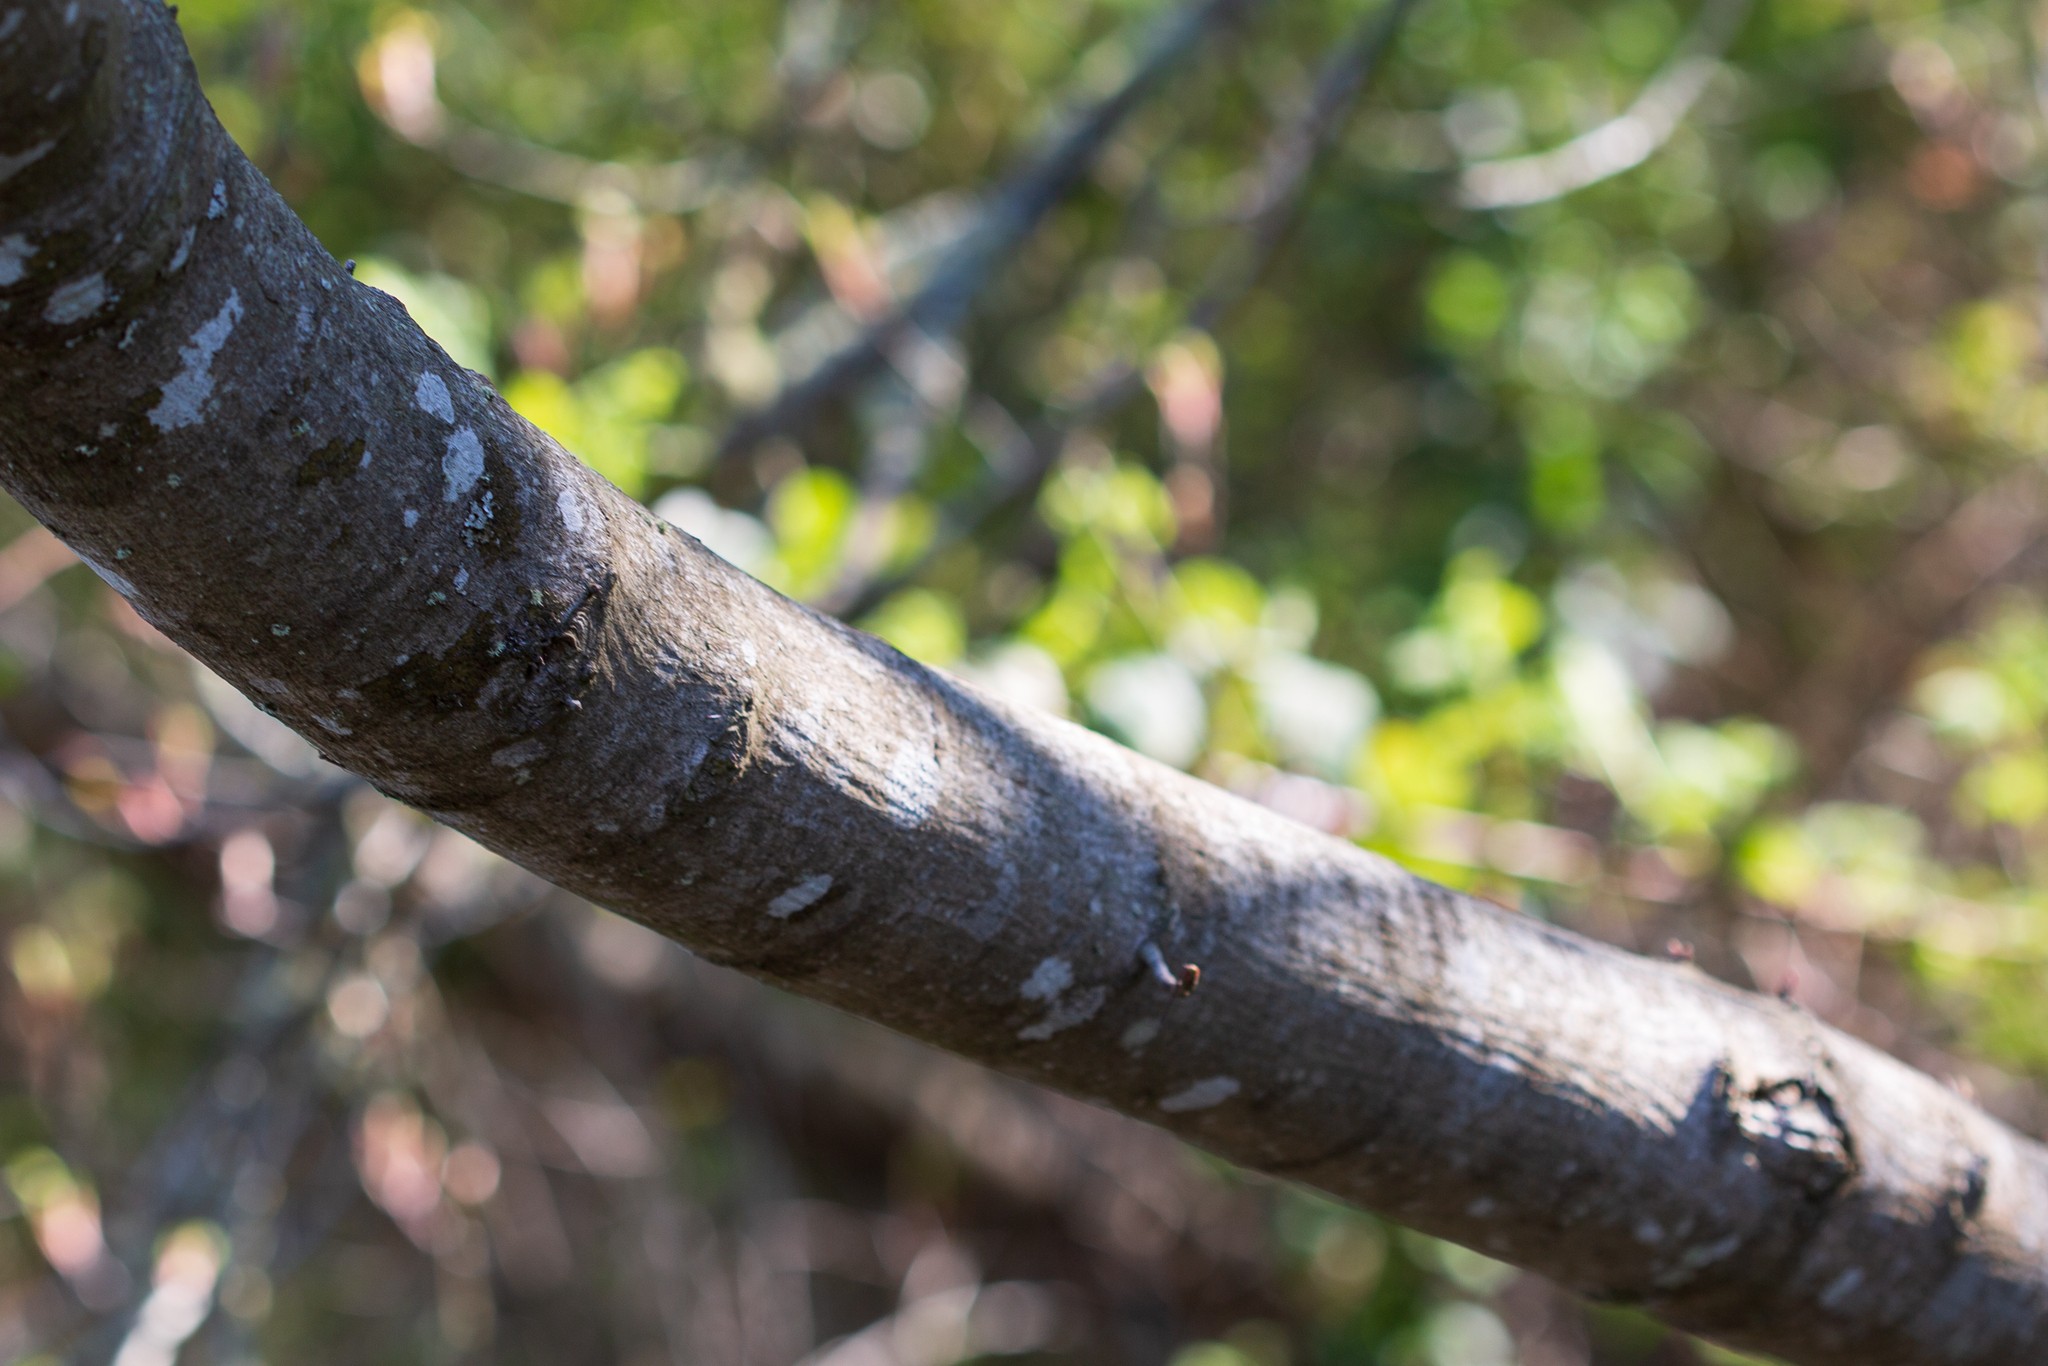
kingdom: Plantae
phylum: Tracheophyta
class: Magnoliopsida
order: Sapindales
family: Sapindaceae
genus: Acer
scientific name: Acer macrophyllum
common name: Oregon maple
